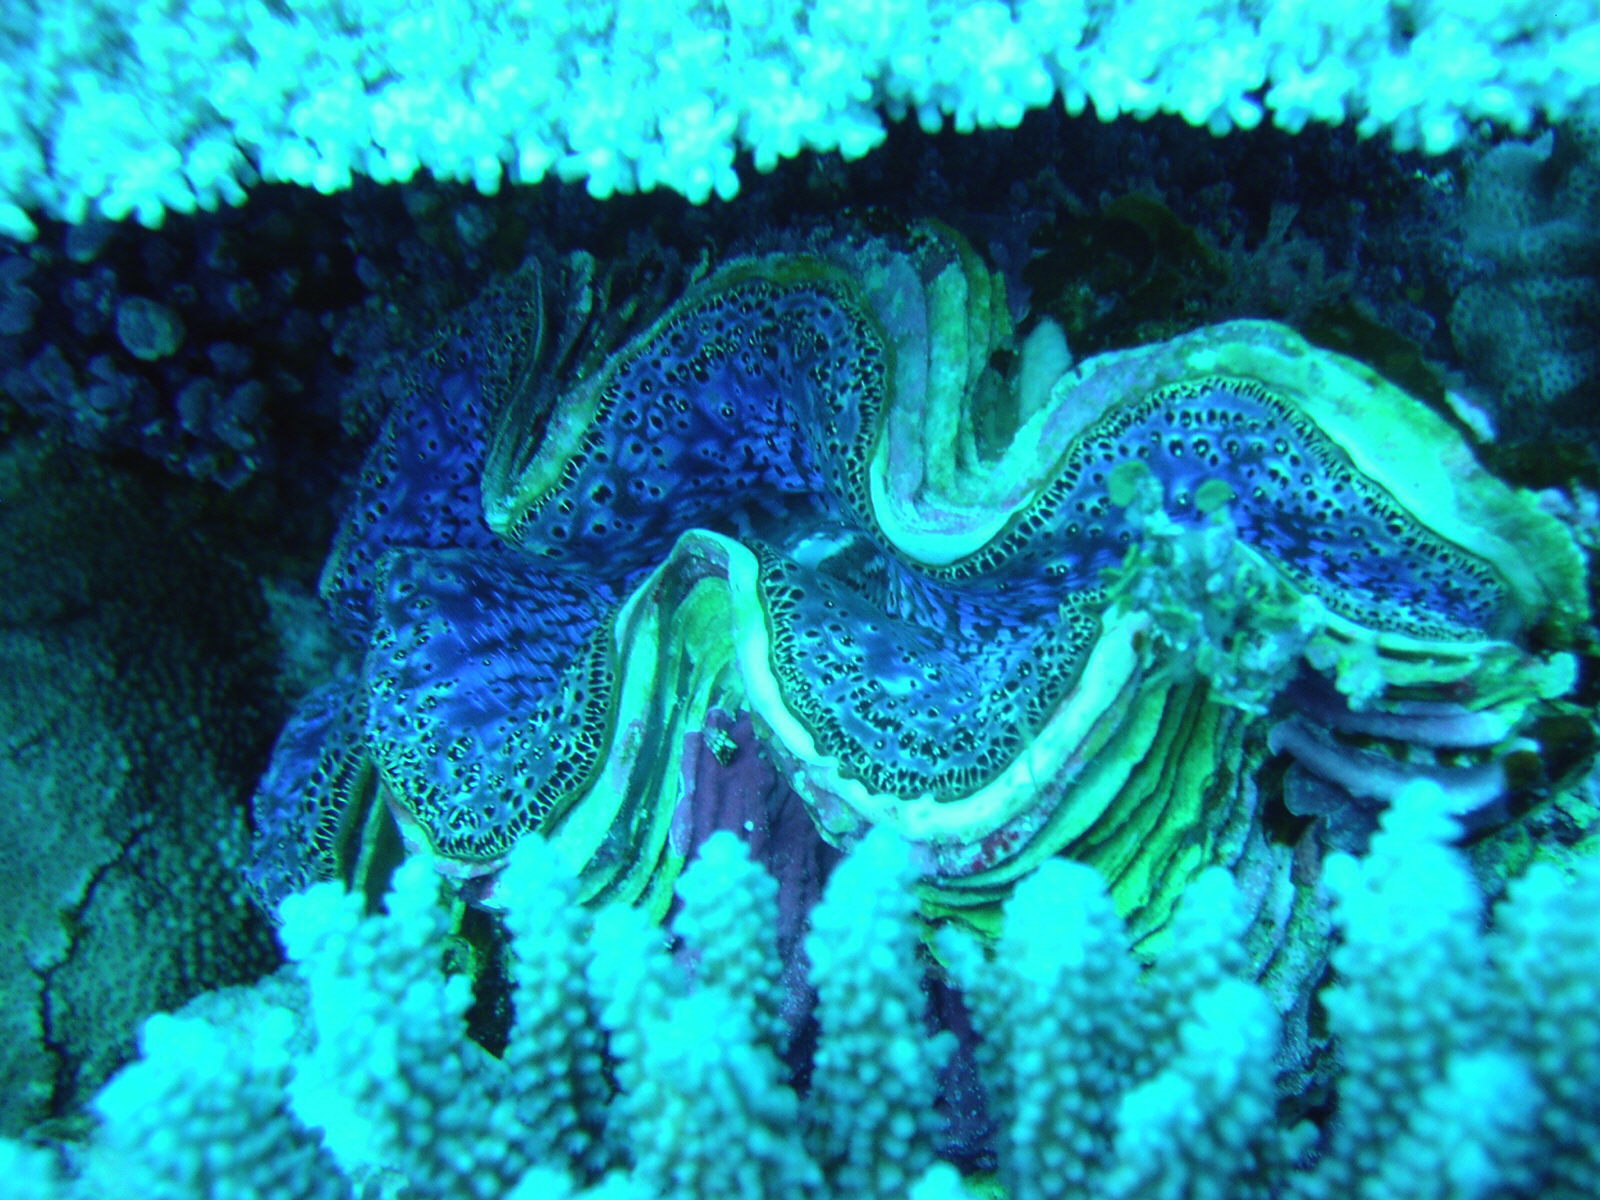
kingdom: Animalia
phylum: Mollusca
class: Bivalvia
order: Cardiida
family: Cardiidae
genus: Tridacna
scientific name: Tridacna maxima
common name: Small giant clam
